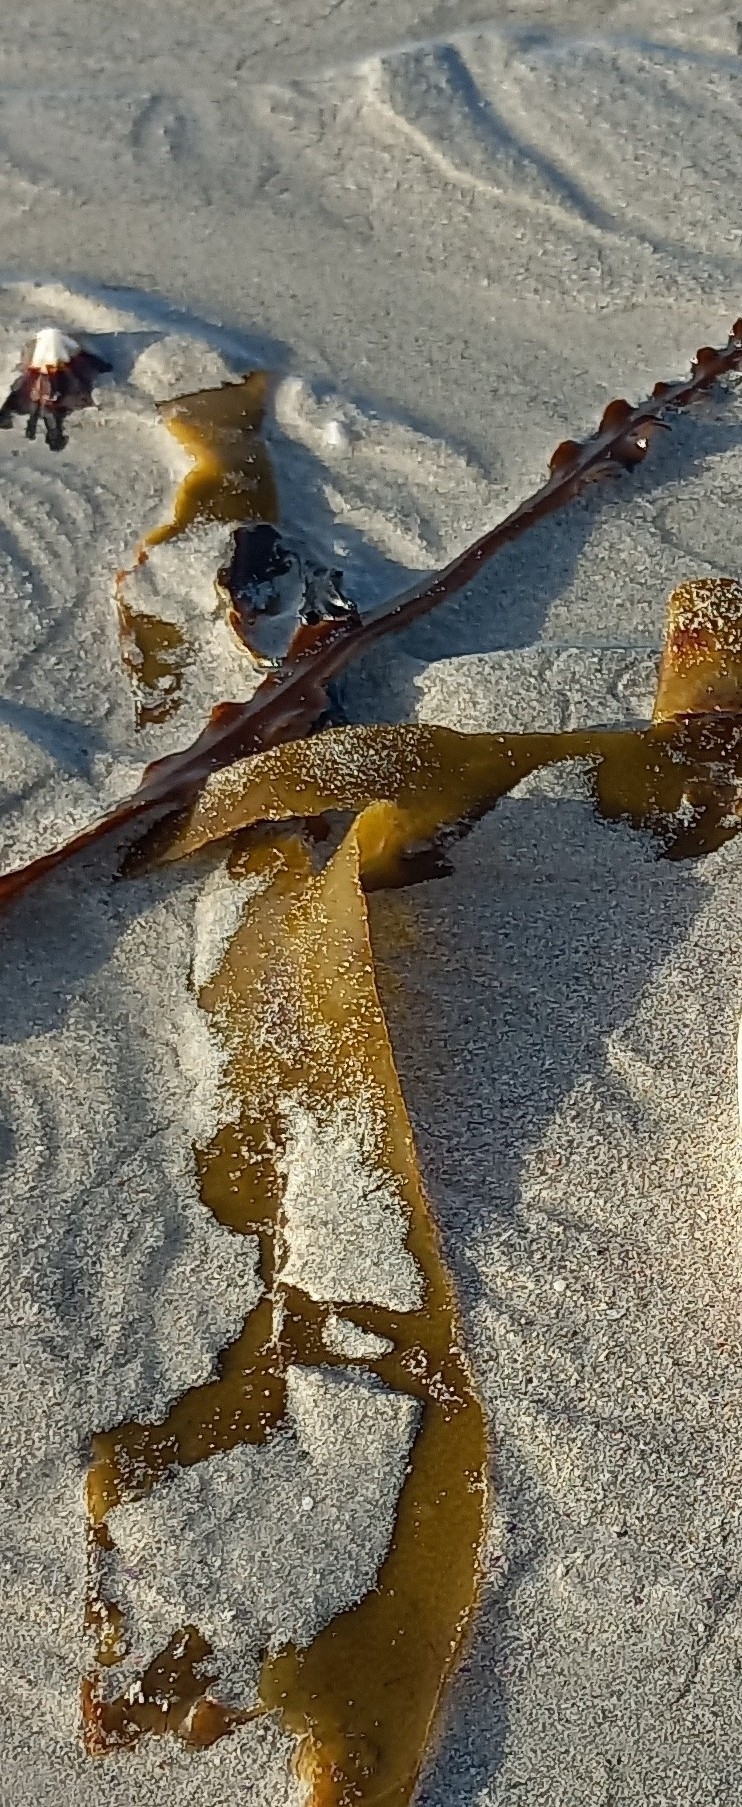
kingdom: Chromista
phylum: Ochrophyta
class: Phaeophyceae
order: Laminariales
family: Lessoniaceae
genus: Ecklonia
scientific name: Ecklonia
